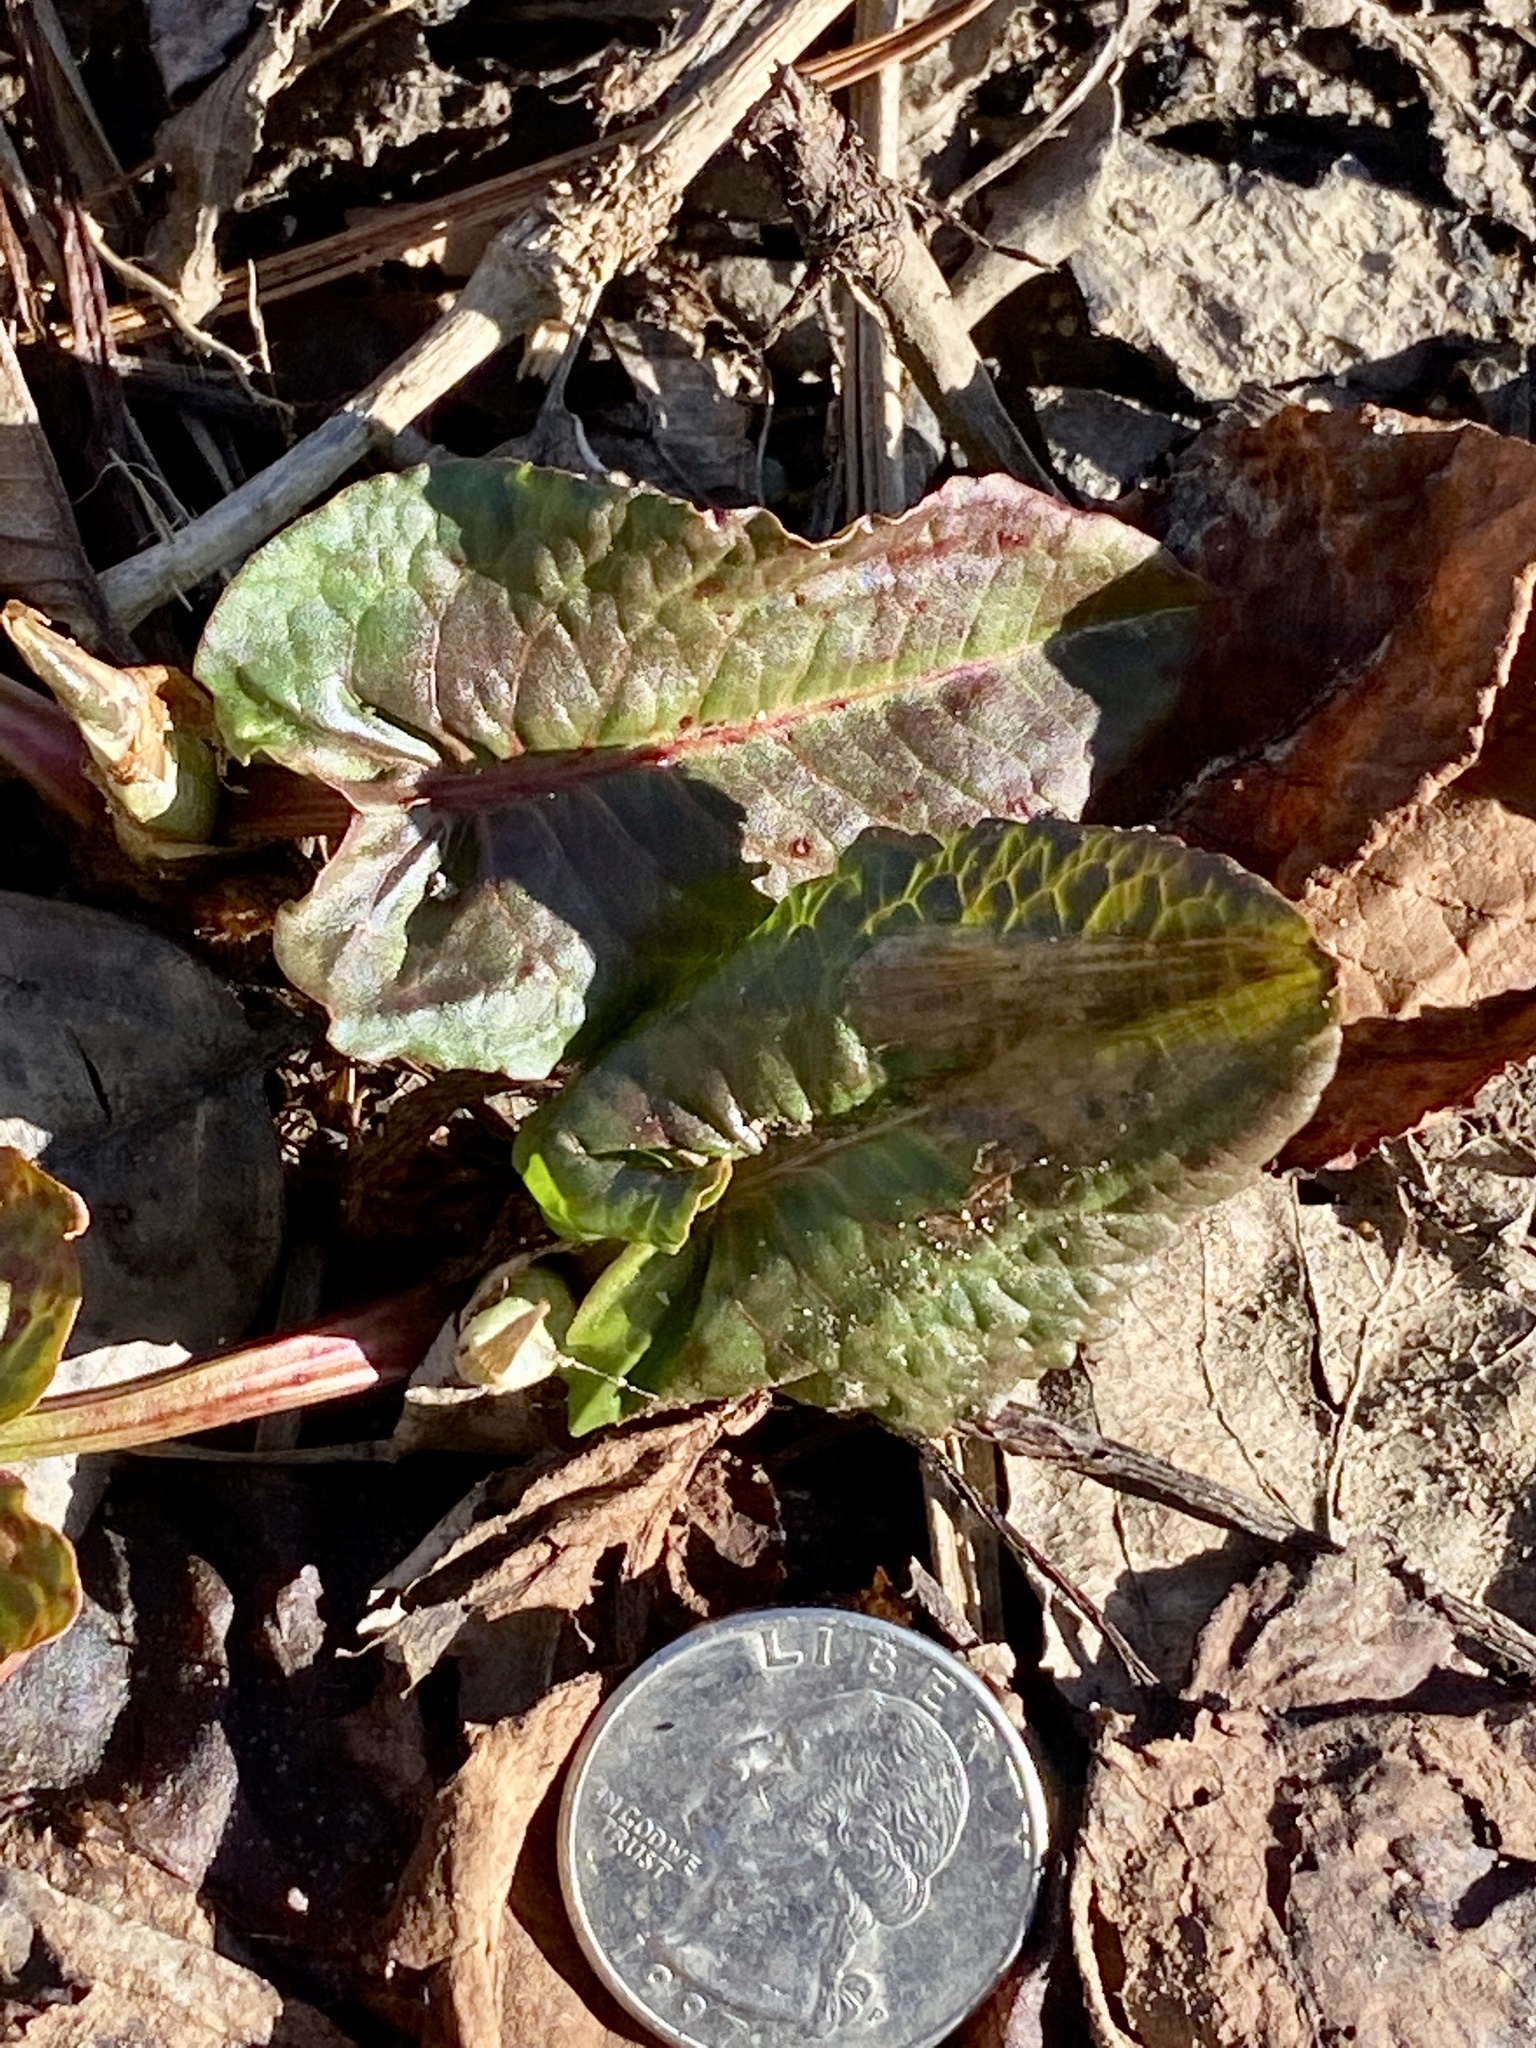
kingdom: Plantae
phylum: Tracheophyta
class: Magnoliopsida
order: Caryophyllales
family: Polygonaceae
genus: Rumex
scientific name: Rumex obtusifolius
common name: Bitter dock
